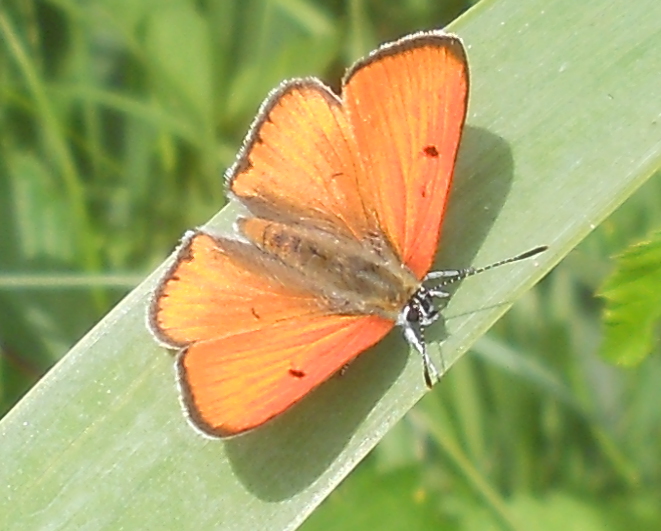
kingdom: Animalia
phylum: Arthropoda
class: Insecta
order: Lepidoptera
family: Lycaenidae
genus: Lycaena
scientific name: Lycaena dispar
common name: Large copper
